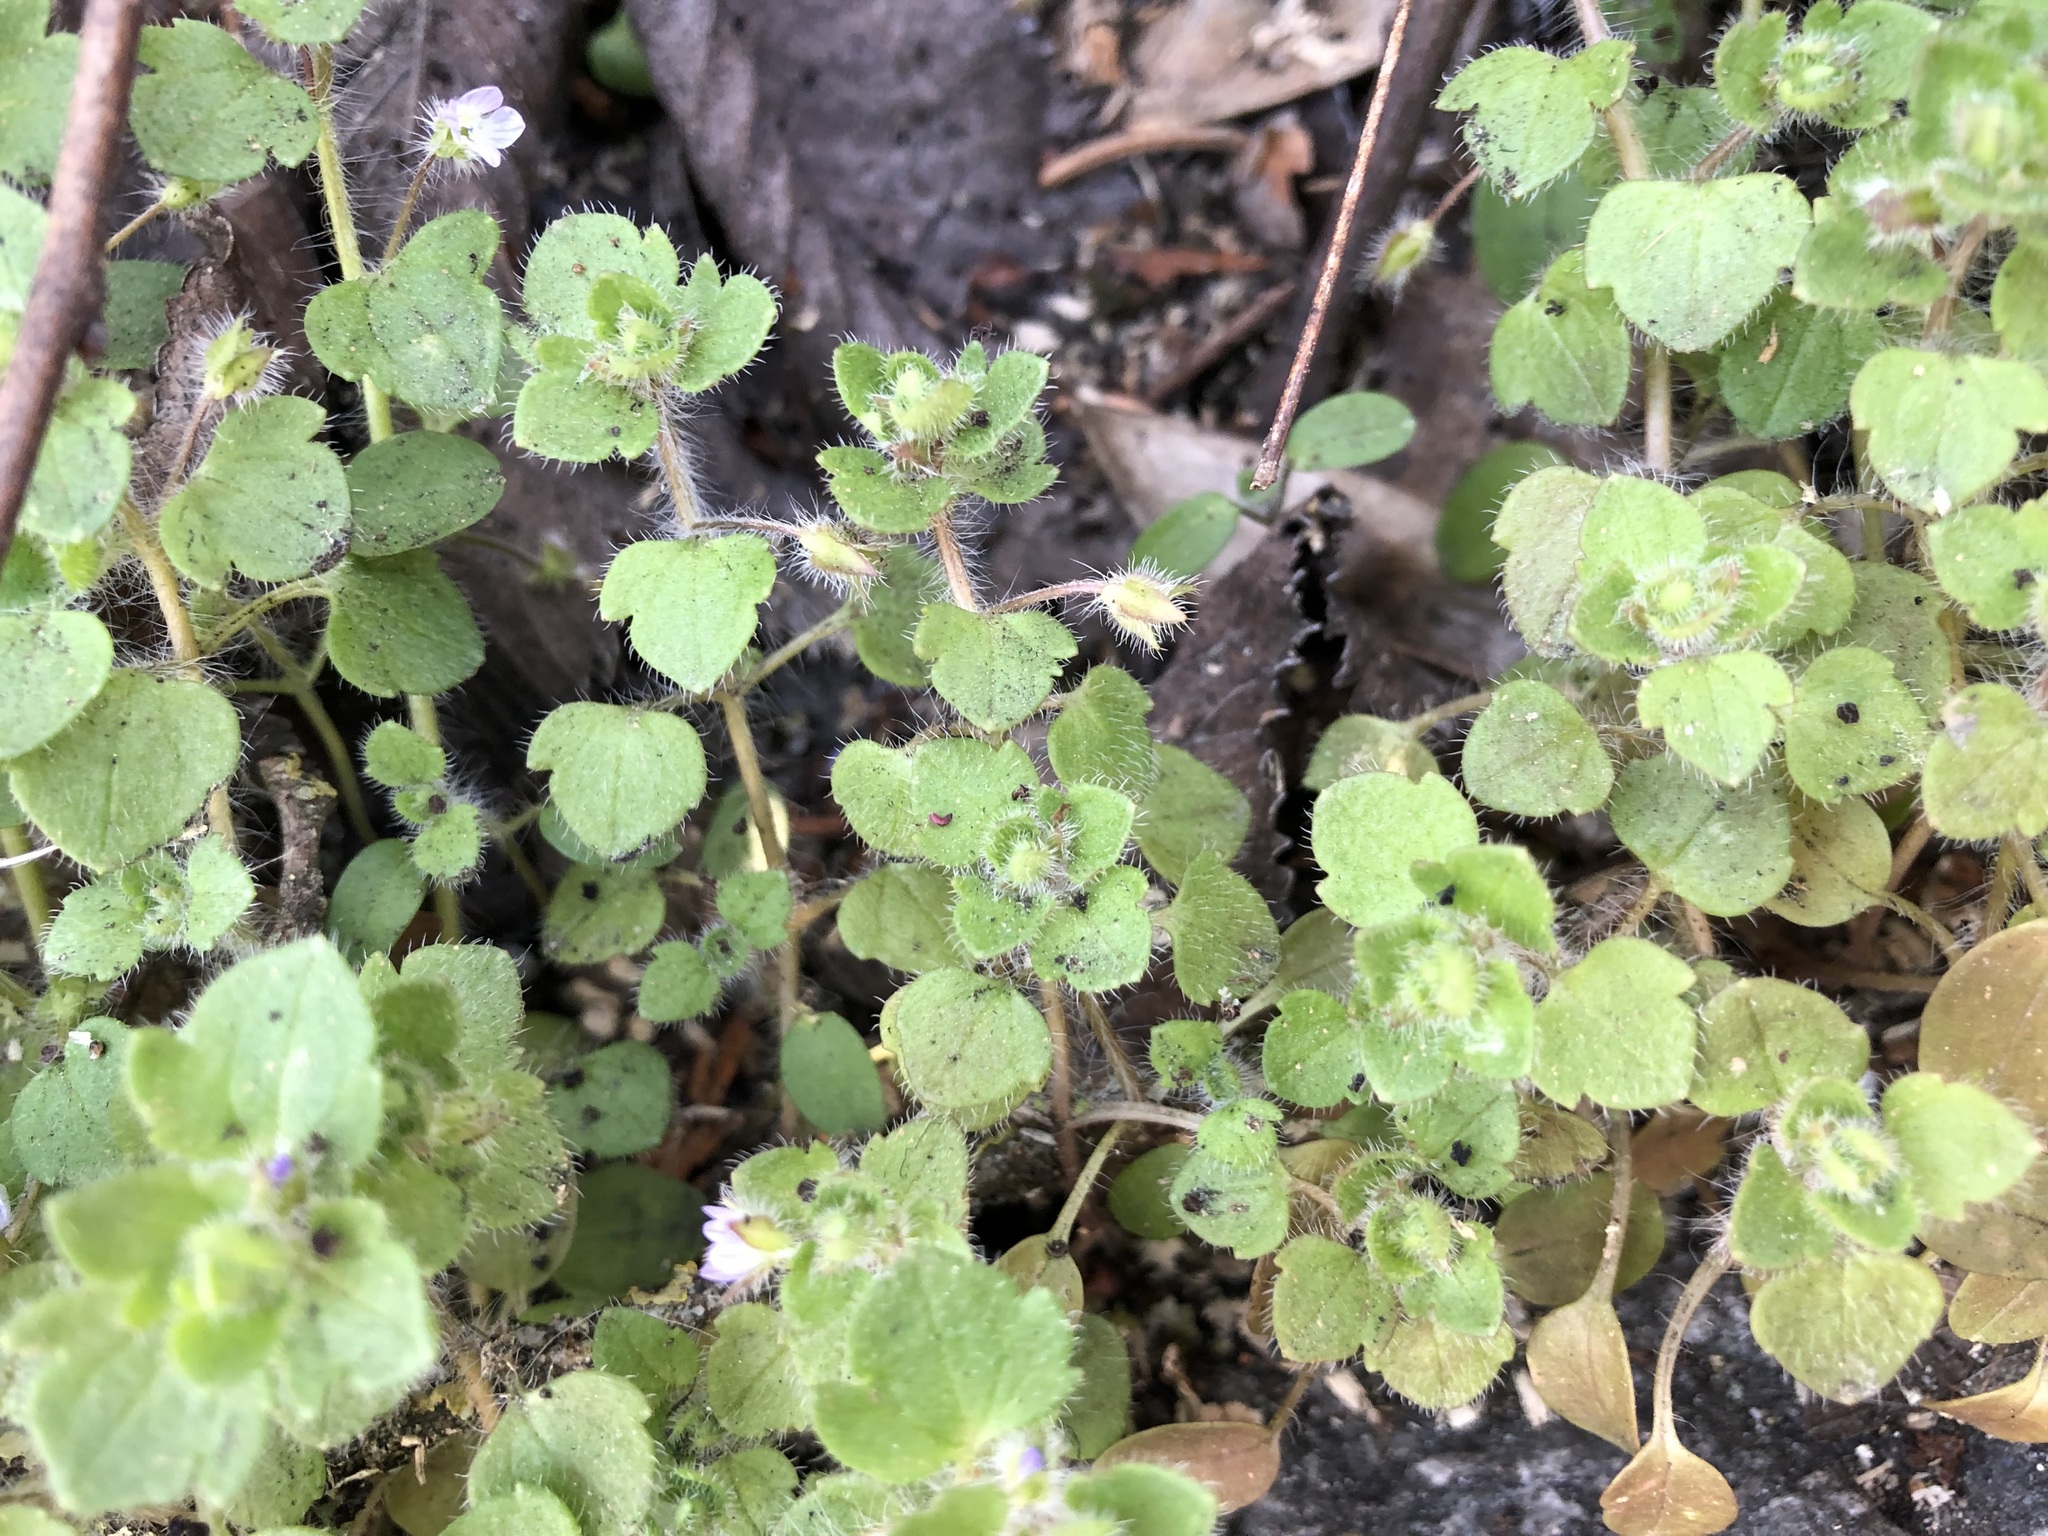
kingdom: Plantae
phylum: Tracheophyta
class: Magnoliopsida
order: Lamiales
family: Plantaginaceae
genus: Veronica
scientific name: Veronica sublobata
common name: False ivy-leaved speedwell
